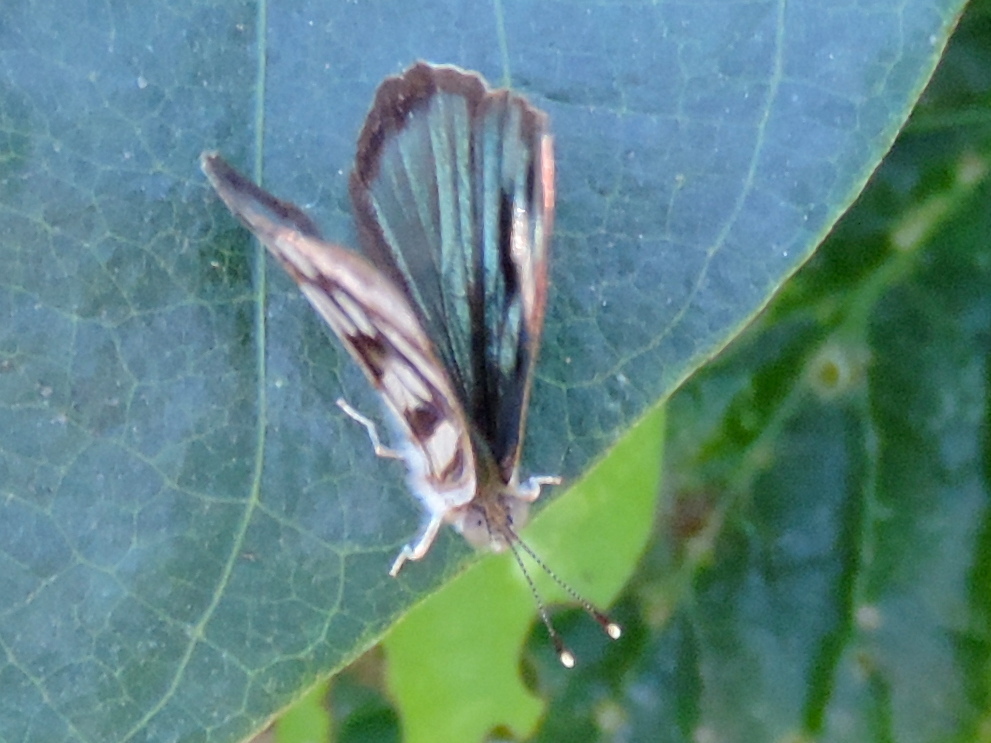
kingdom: Animalia
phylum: Arthropoda
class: Insecta
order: Lepidoptera
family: Nymphalidae
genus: Dynamine
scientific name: Dynamine mylitta
